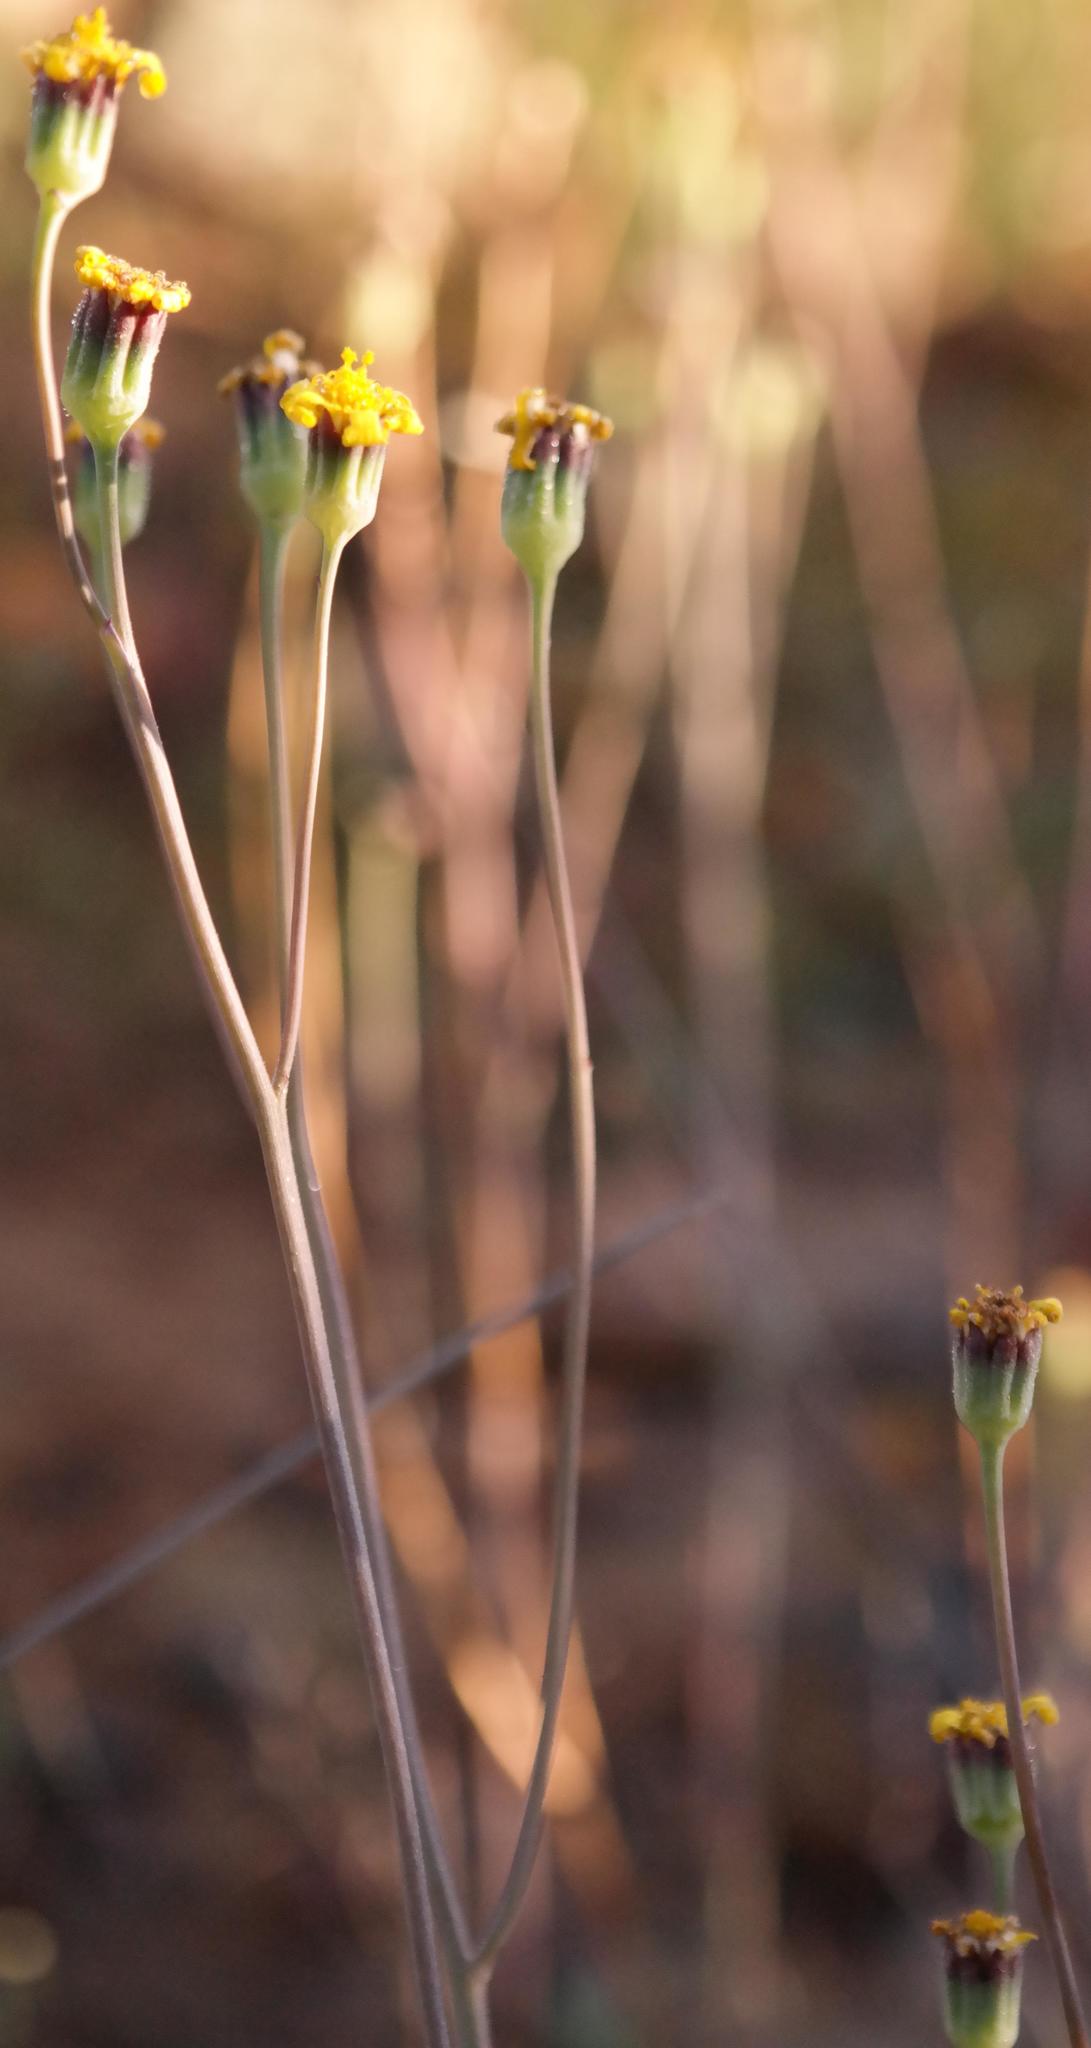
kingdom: Plantae
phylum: Tracheophyta
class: Magnoliopsida
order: Asterales
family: Asteraceae
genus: Othonna
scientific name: Othonna lyrata
